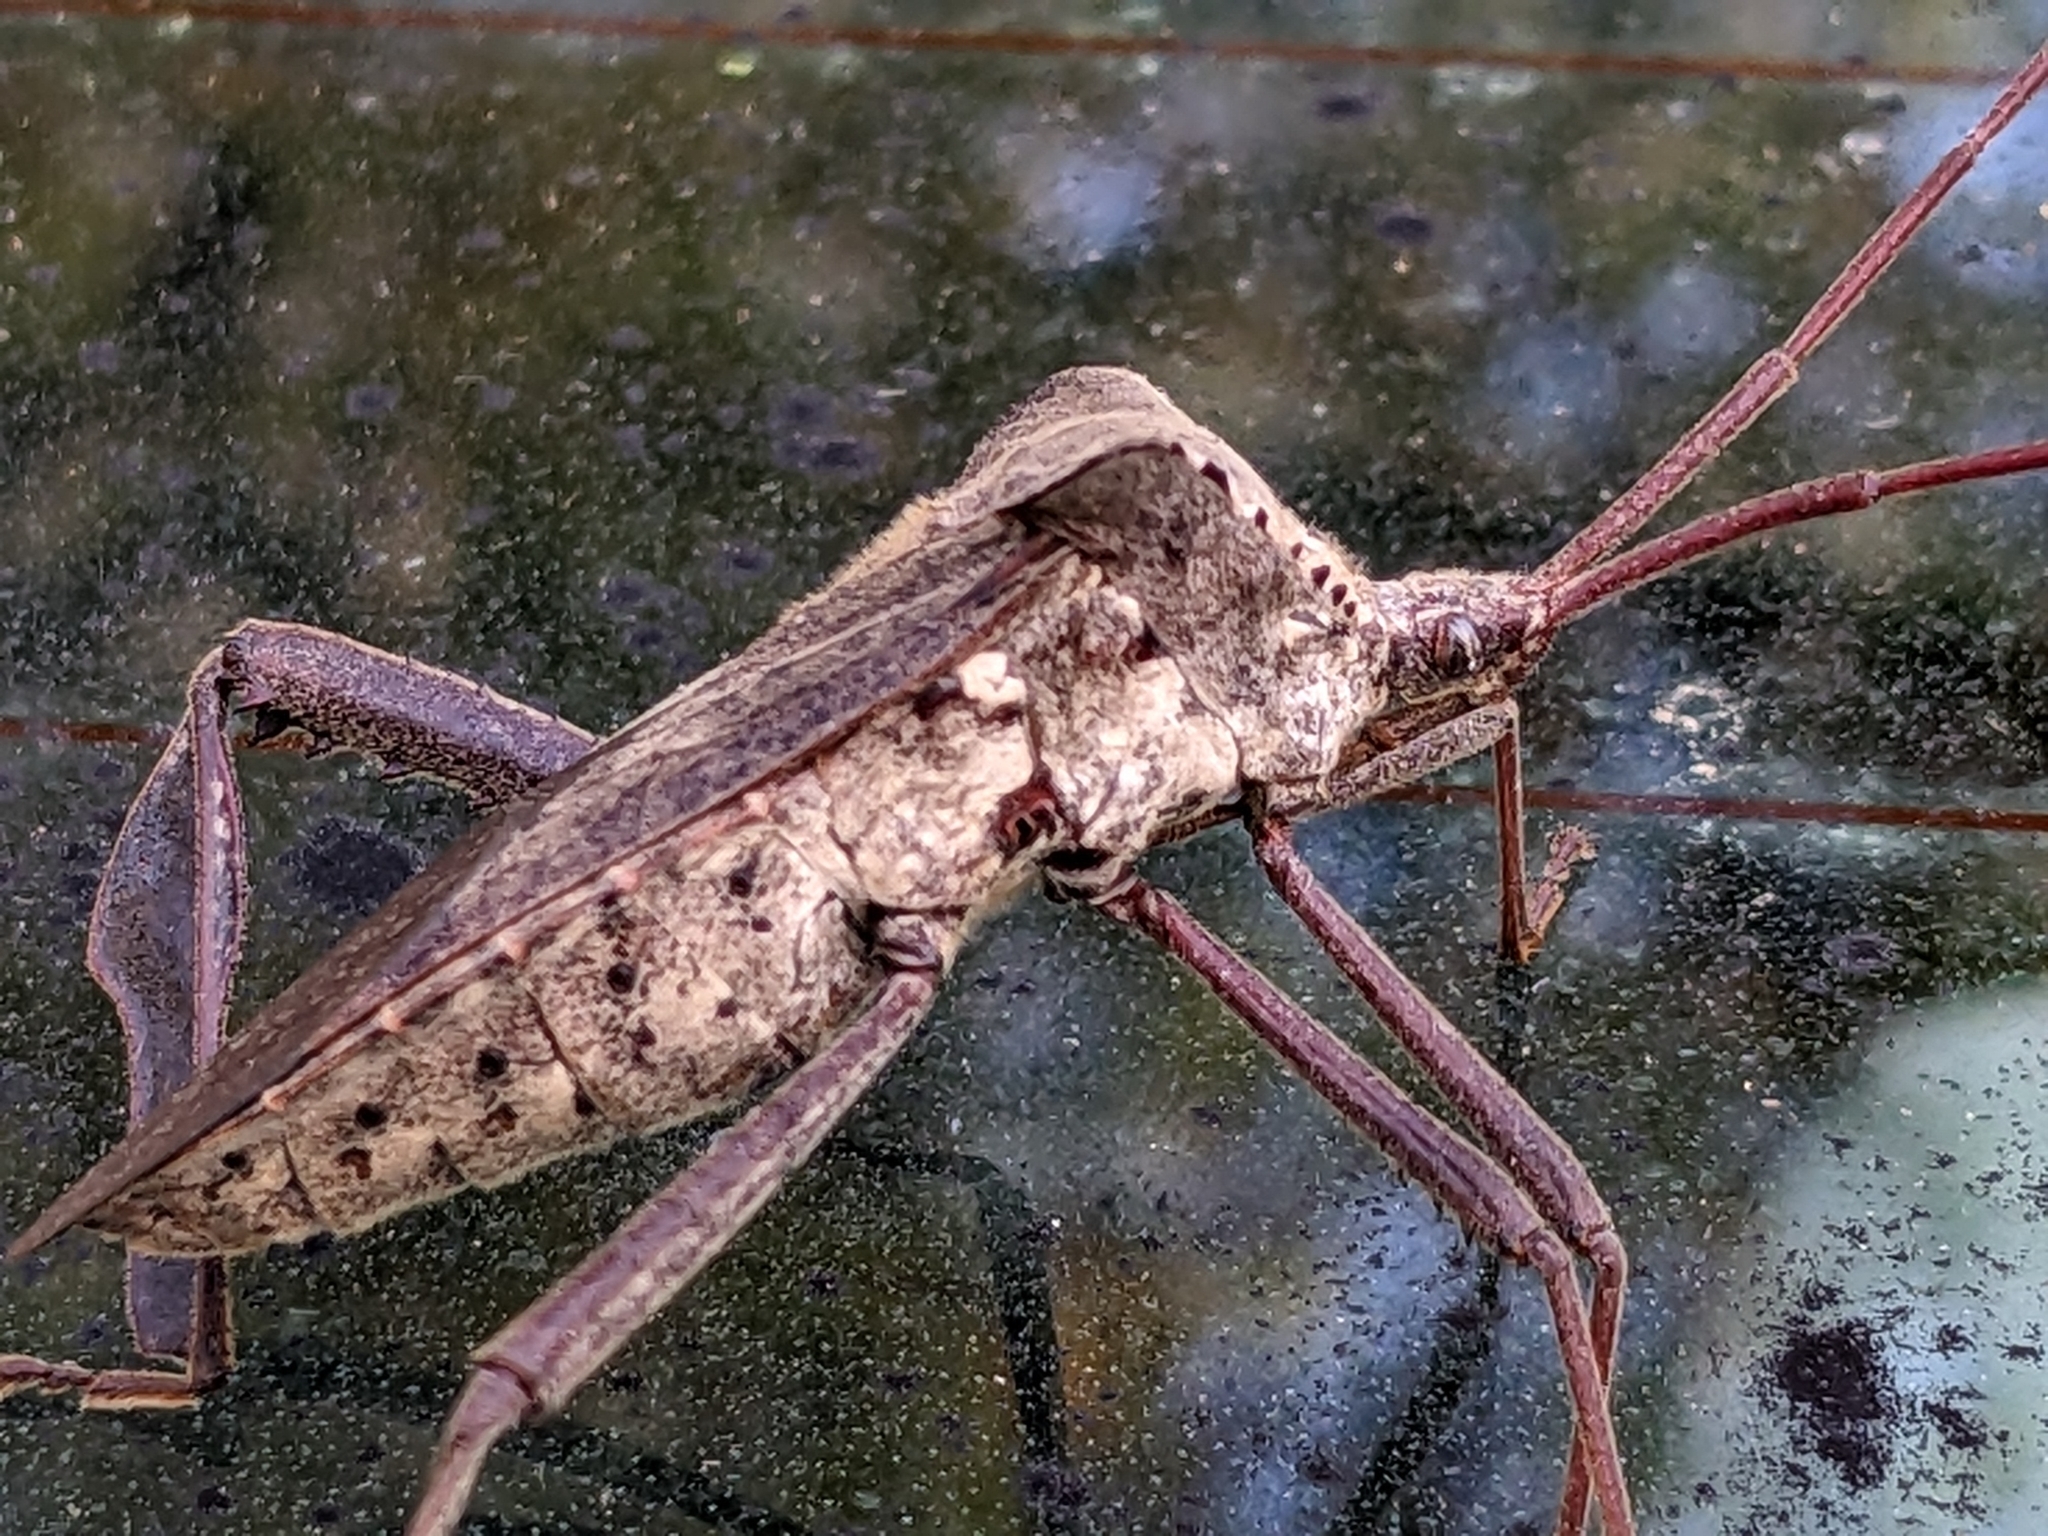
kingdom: Animalia
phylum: Arthropoda
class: Insecta
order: Hemiptera
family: Coreidae
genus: Acanthocephala
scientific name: Acanthocephala declivis
